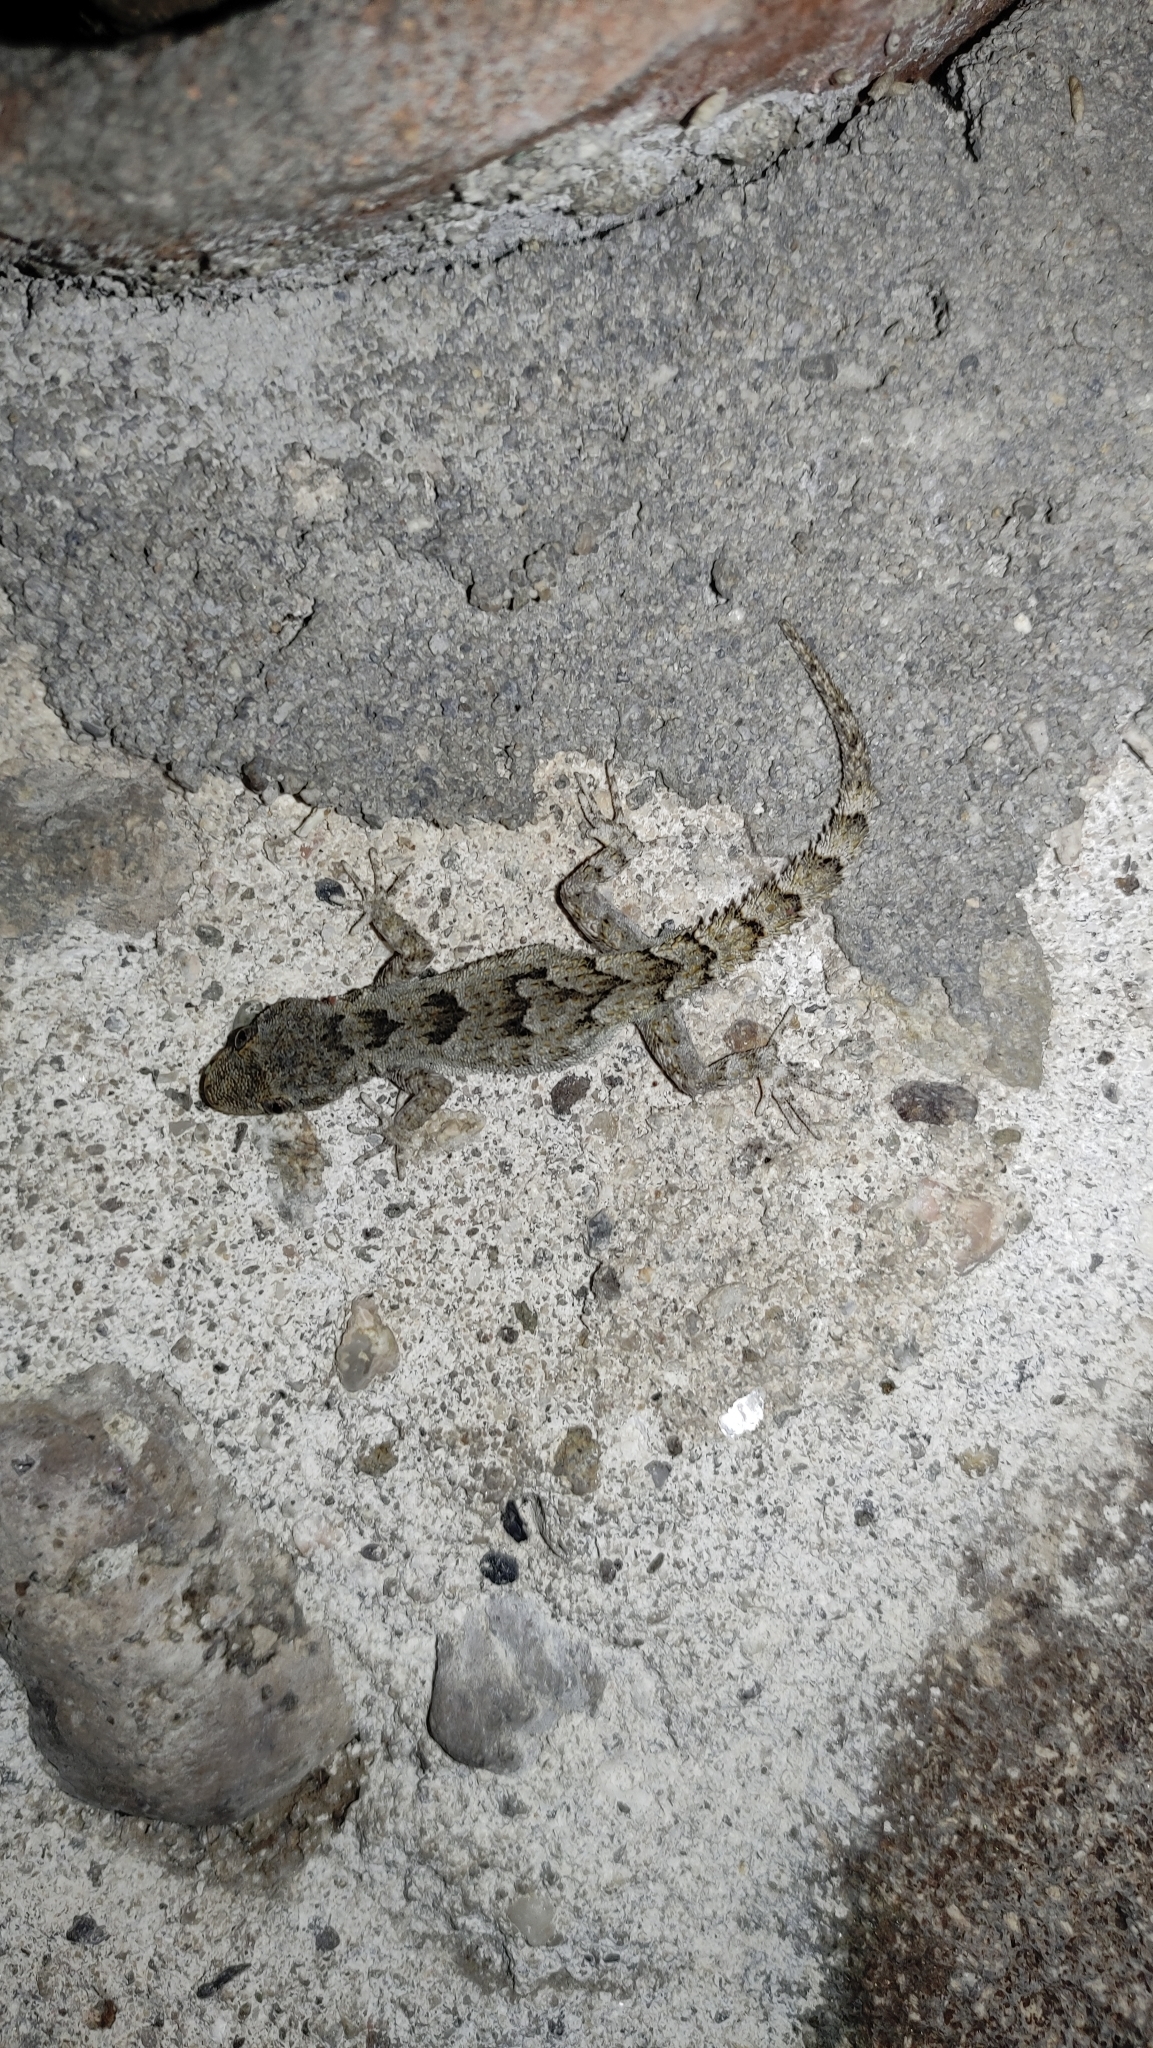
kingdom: Animalia
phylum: Chordata
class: Squamata
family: Gekkonidae
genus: Mediodactylus
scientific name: Mediodactylus kotschyi
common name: Kotschy's gecko
